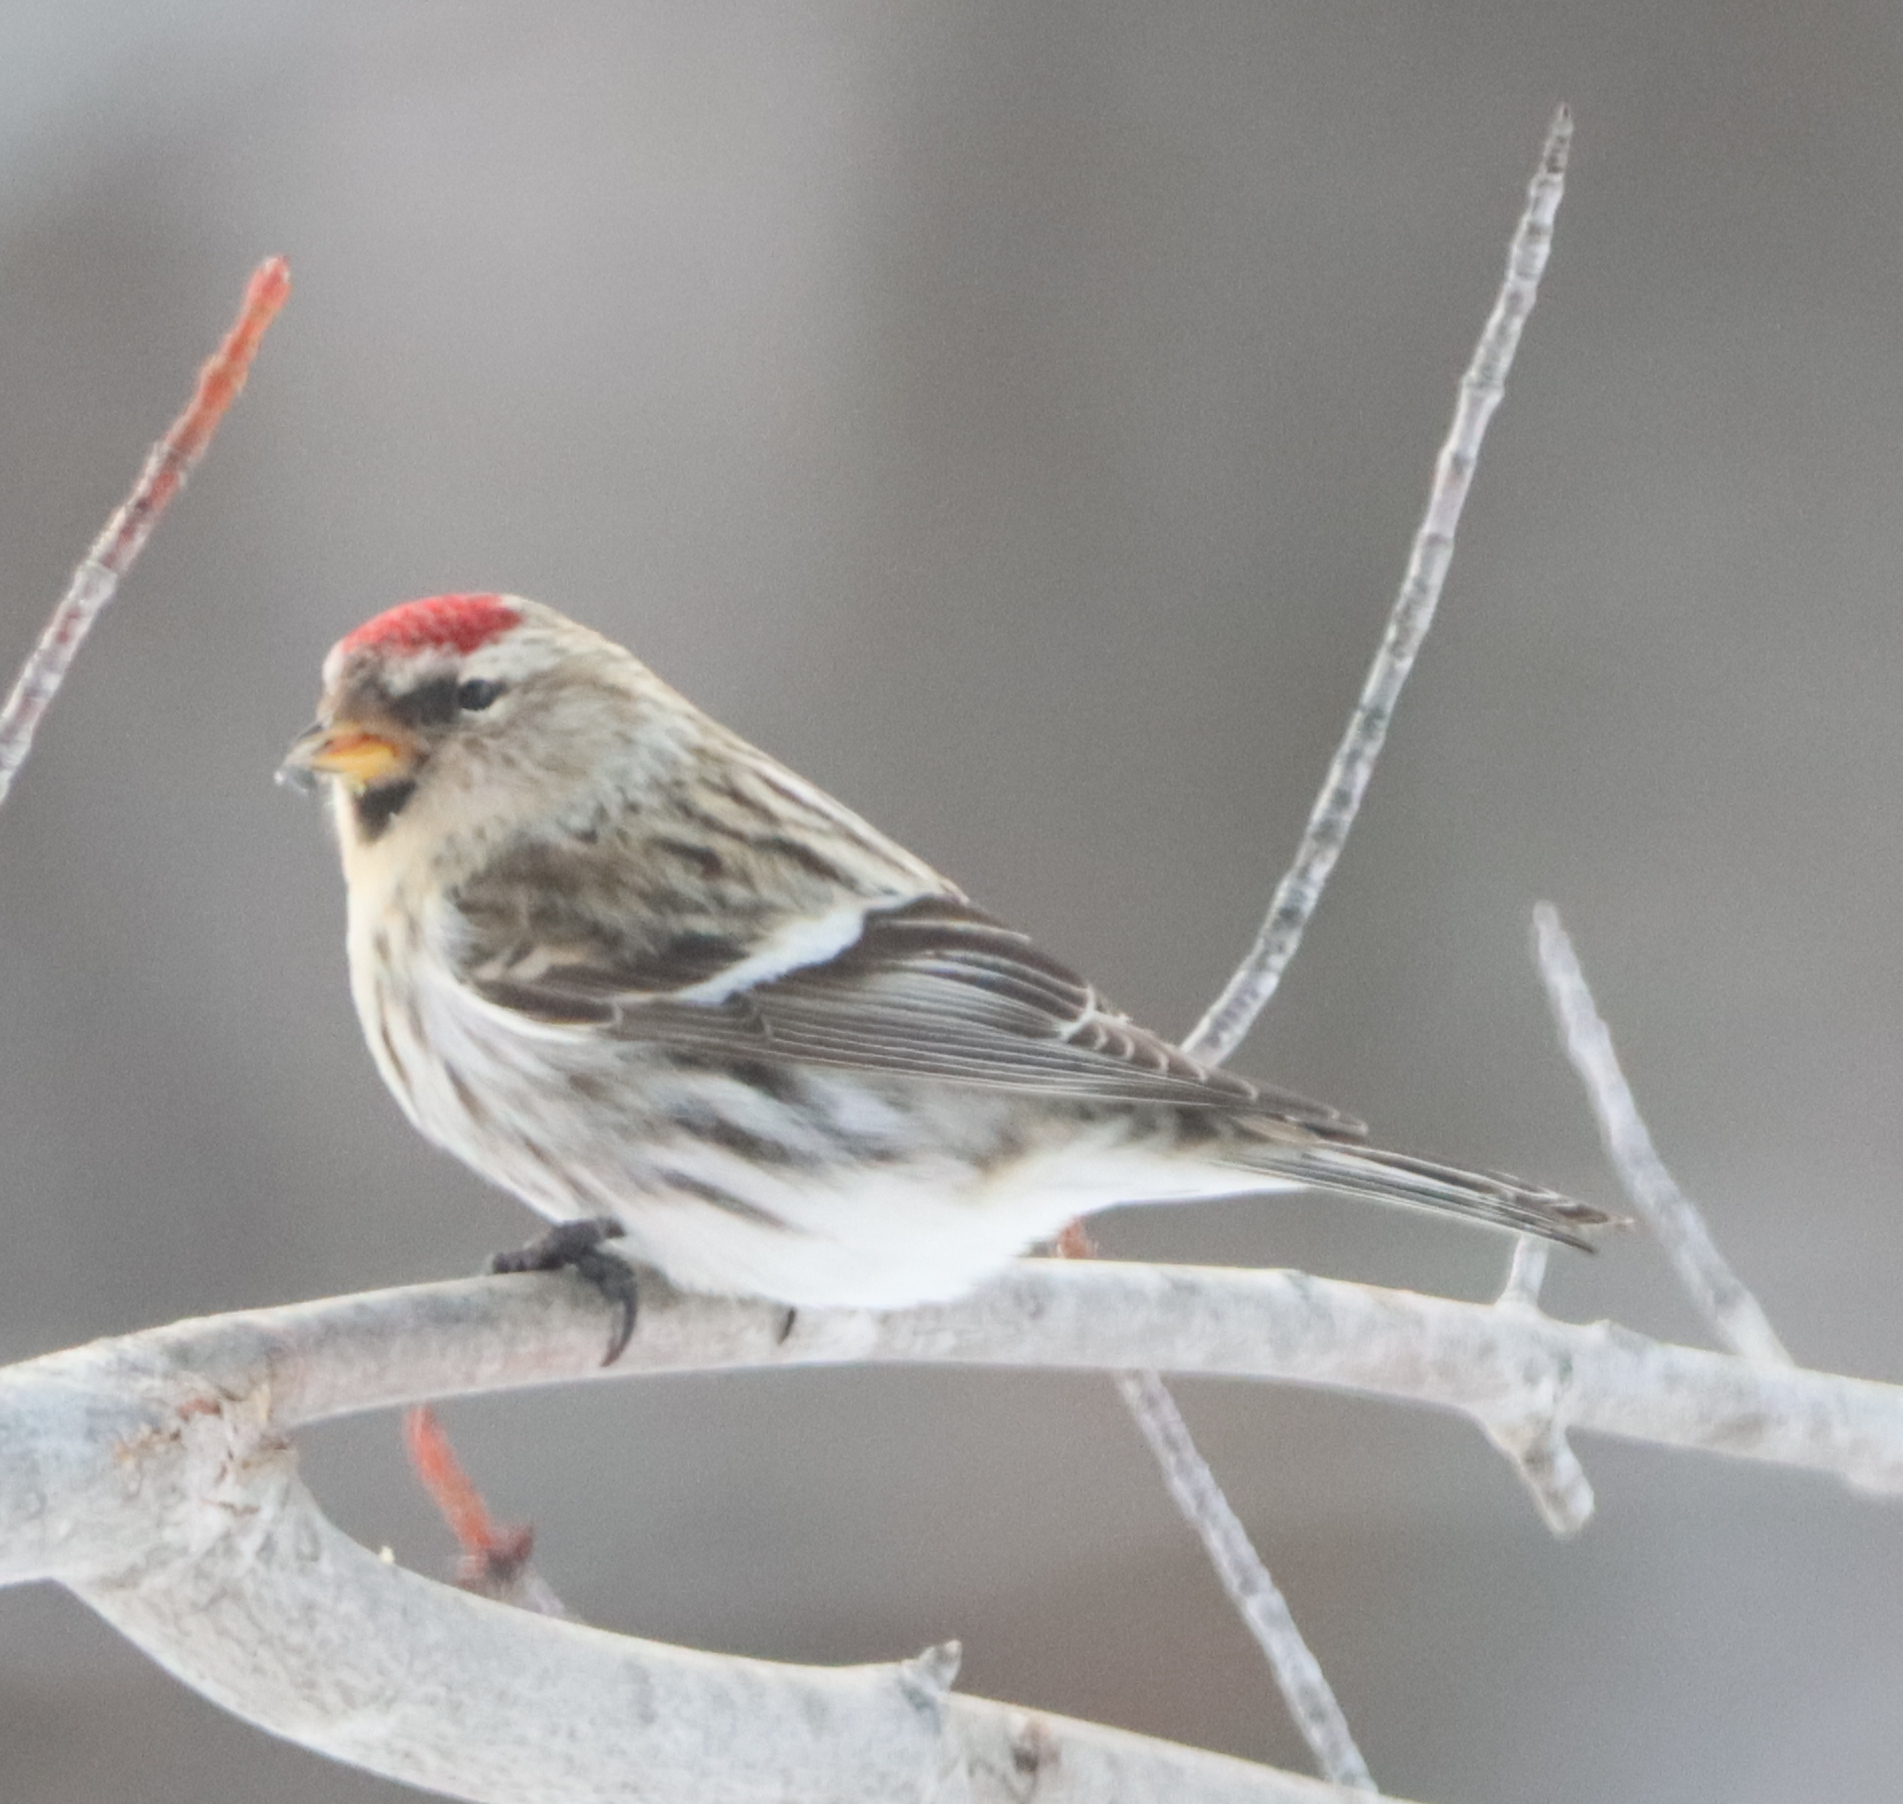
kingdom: Animalia
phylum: Chordata
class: Aves
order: Passeriformes
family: Fringillidae
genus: Acanthis
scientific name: Acanthis flammea
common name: Common redpoll
